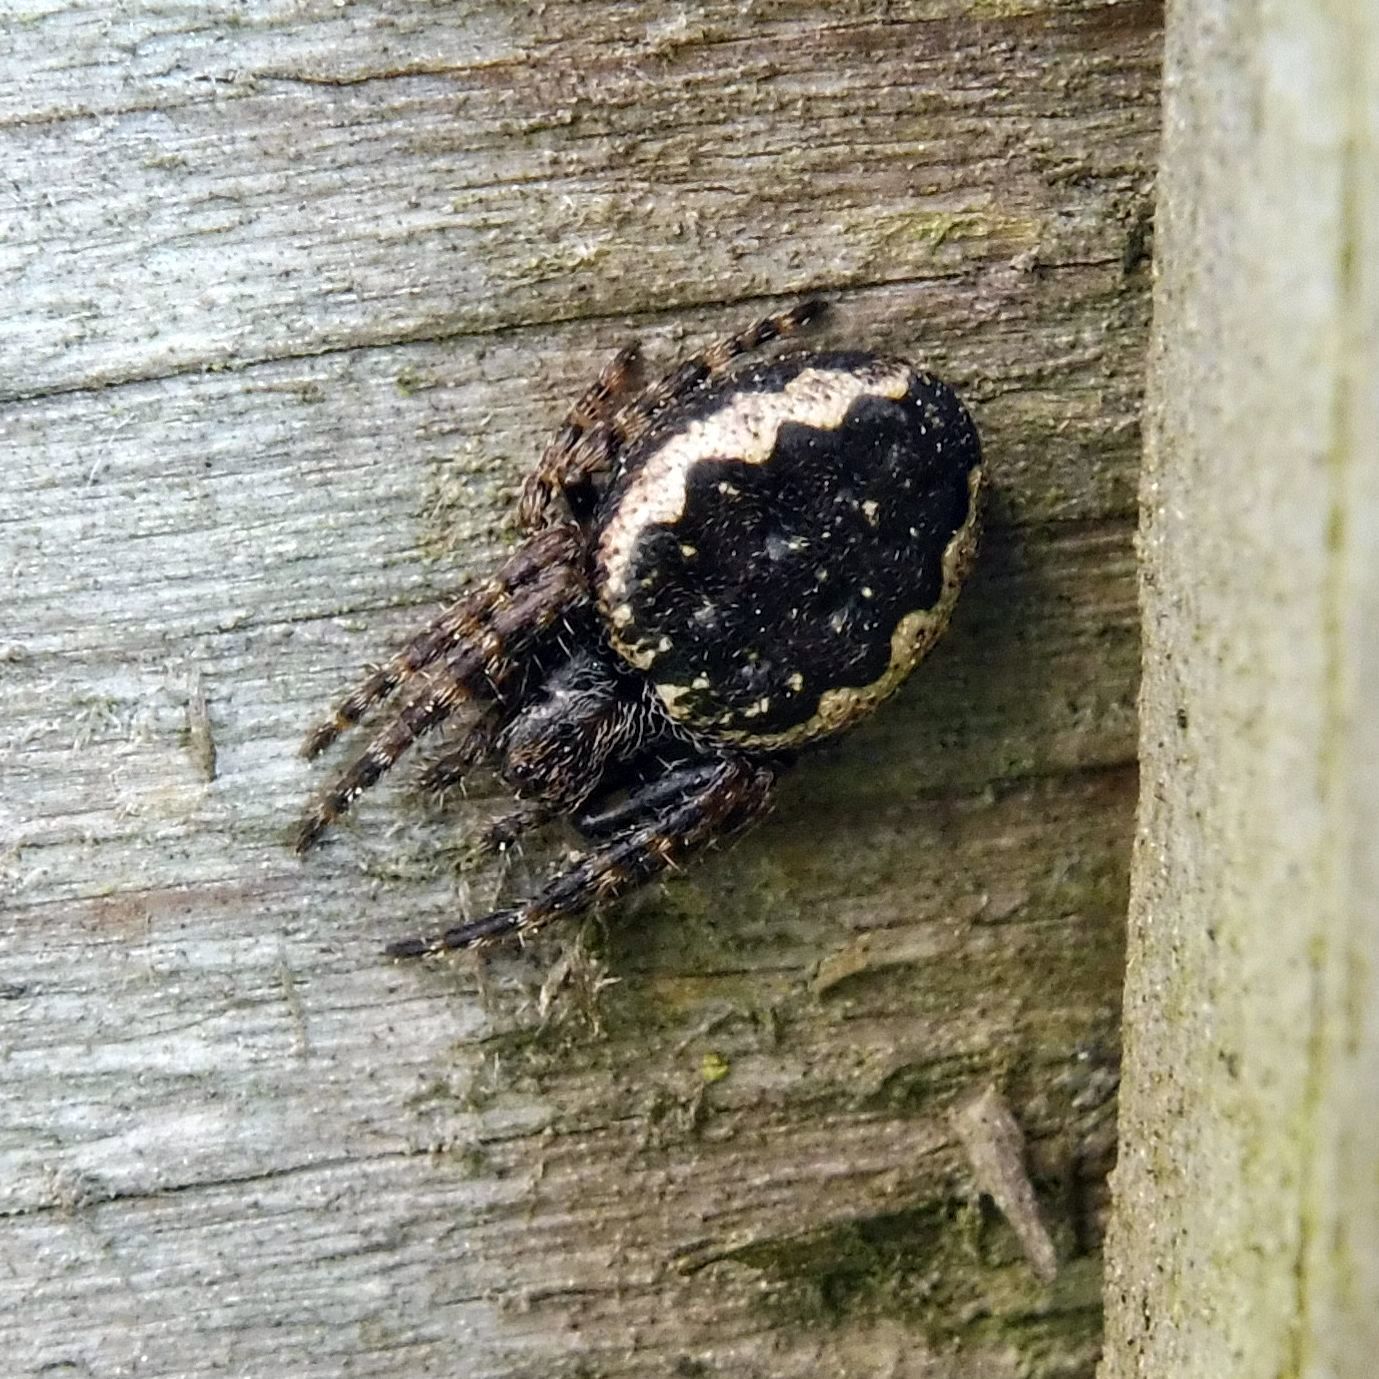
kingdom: Animalia
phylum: Arthropoda
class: Arachnida
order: Araneae
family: Araneidae
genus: Nuctenea
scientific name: Nuctenea umbratica
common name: Toad spider
